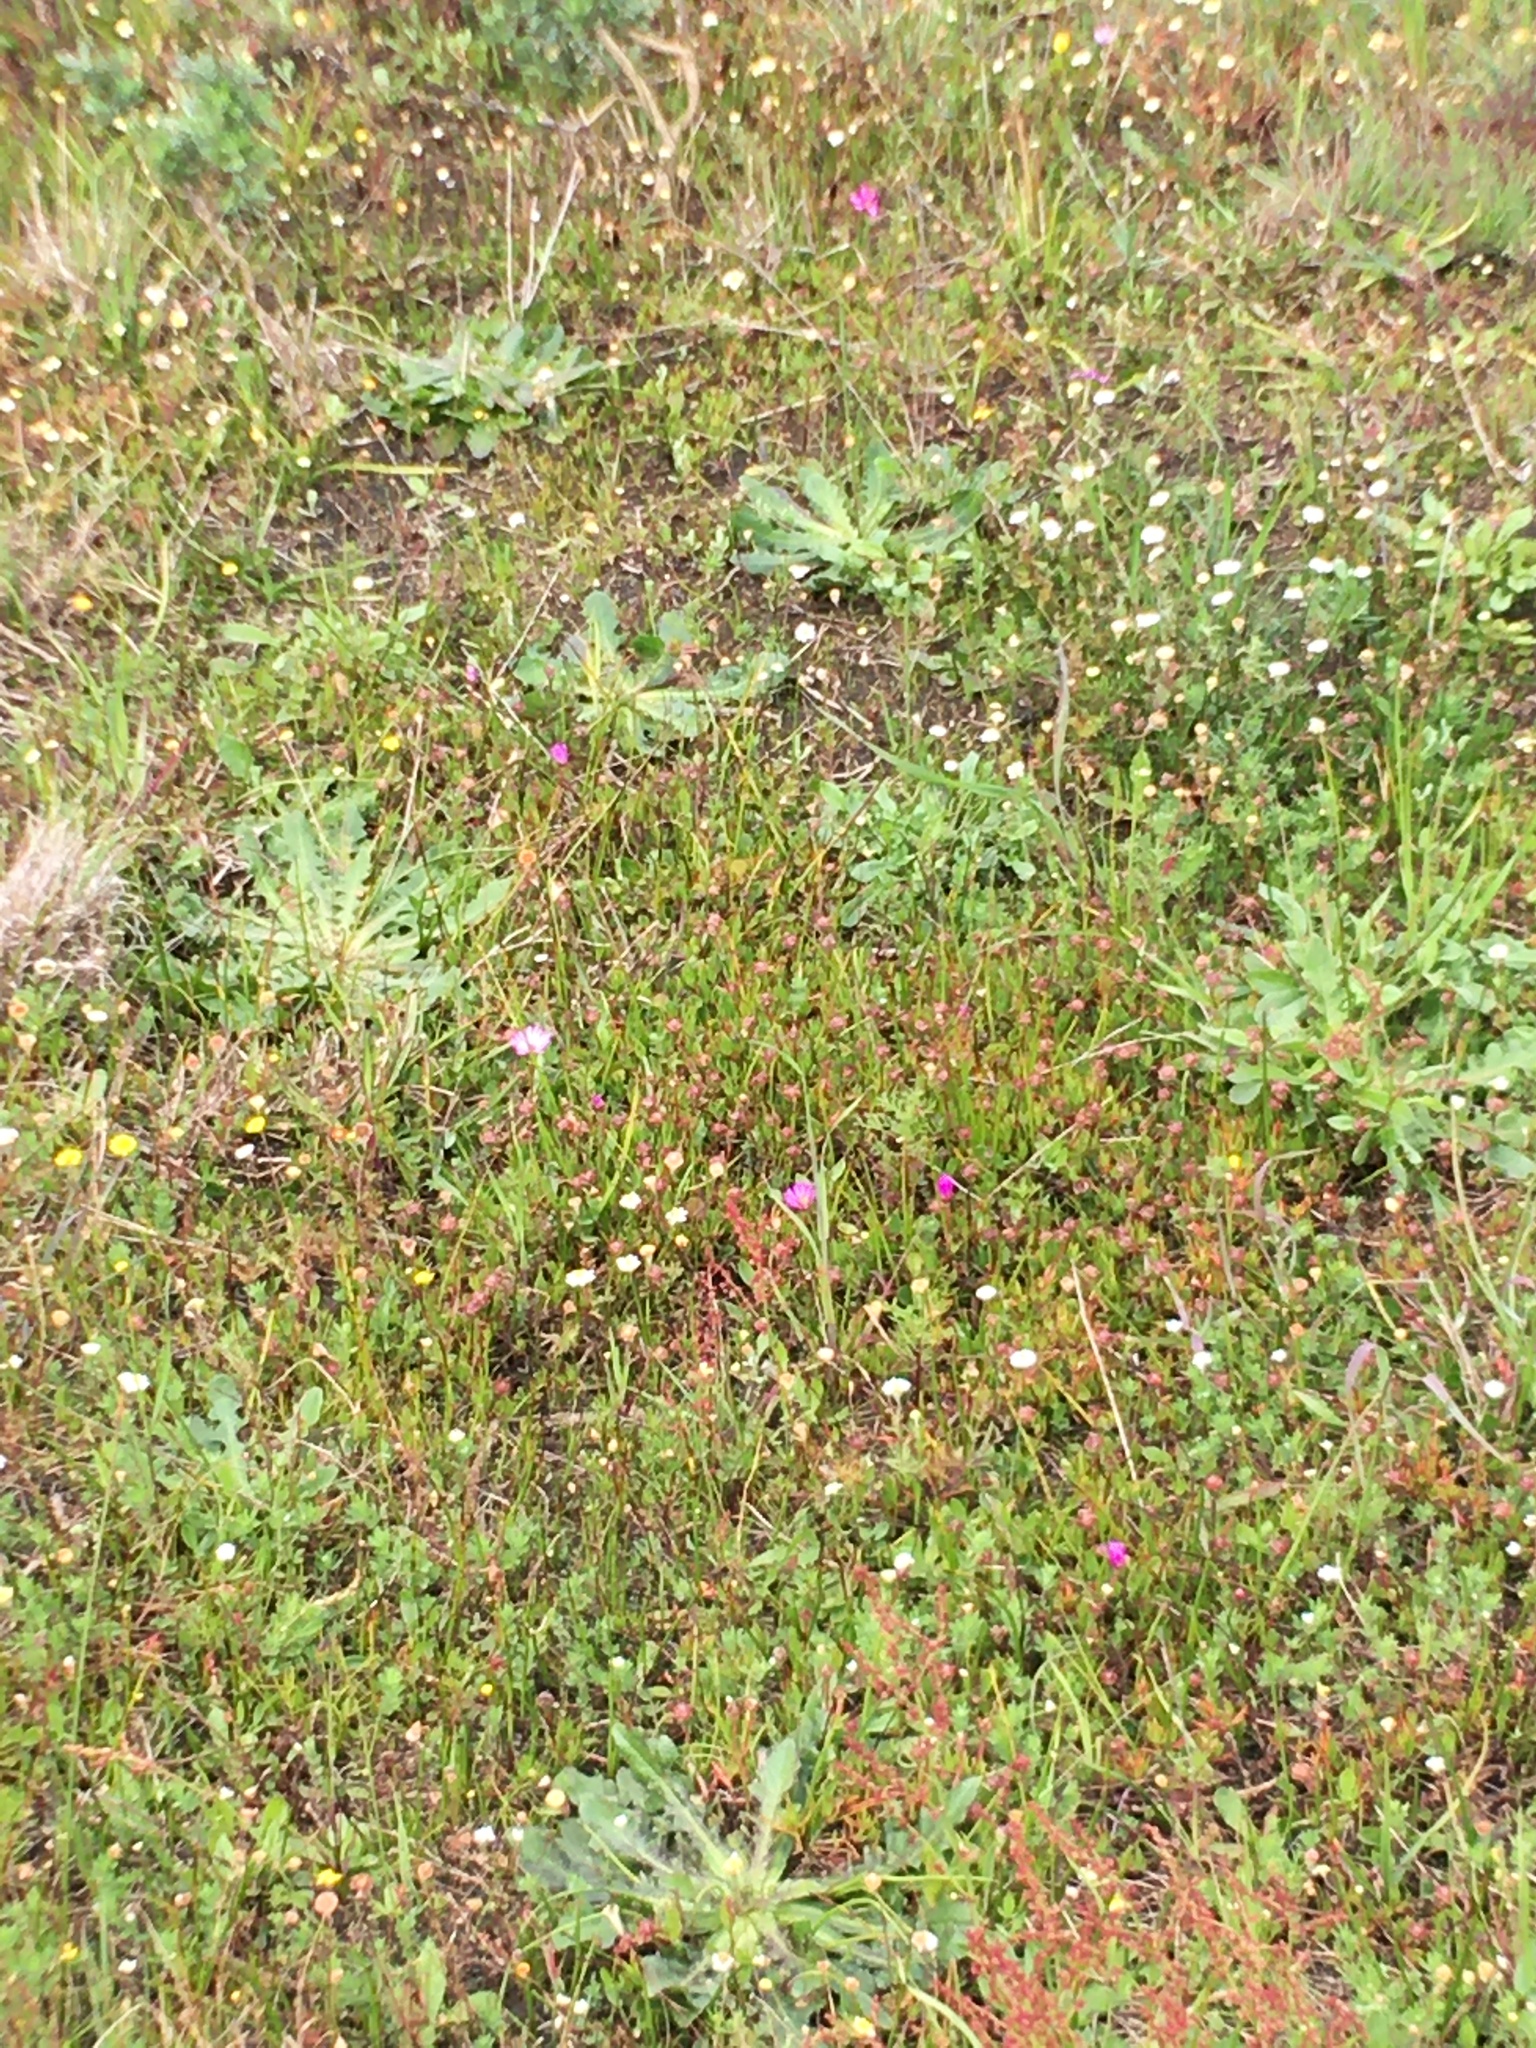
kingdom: Plantae
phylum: Tracheophyta
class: Magnoliopsida
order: Caryophyllales
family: Aizoaceae
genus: Lampranthus
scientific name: Lampranthus filicaulis
